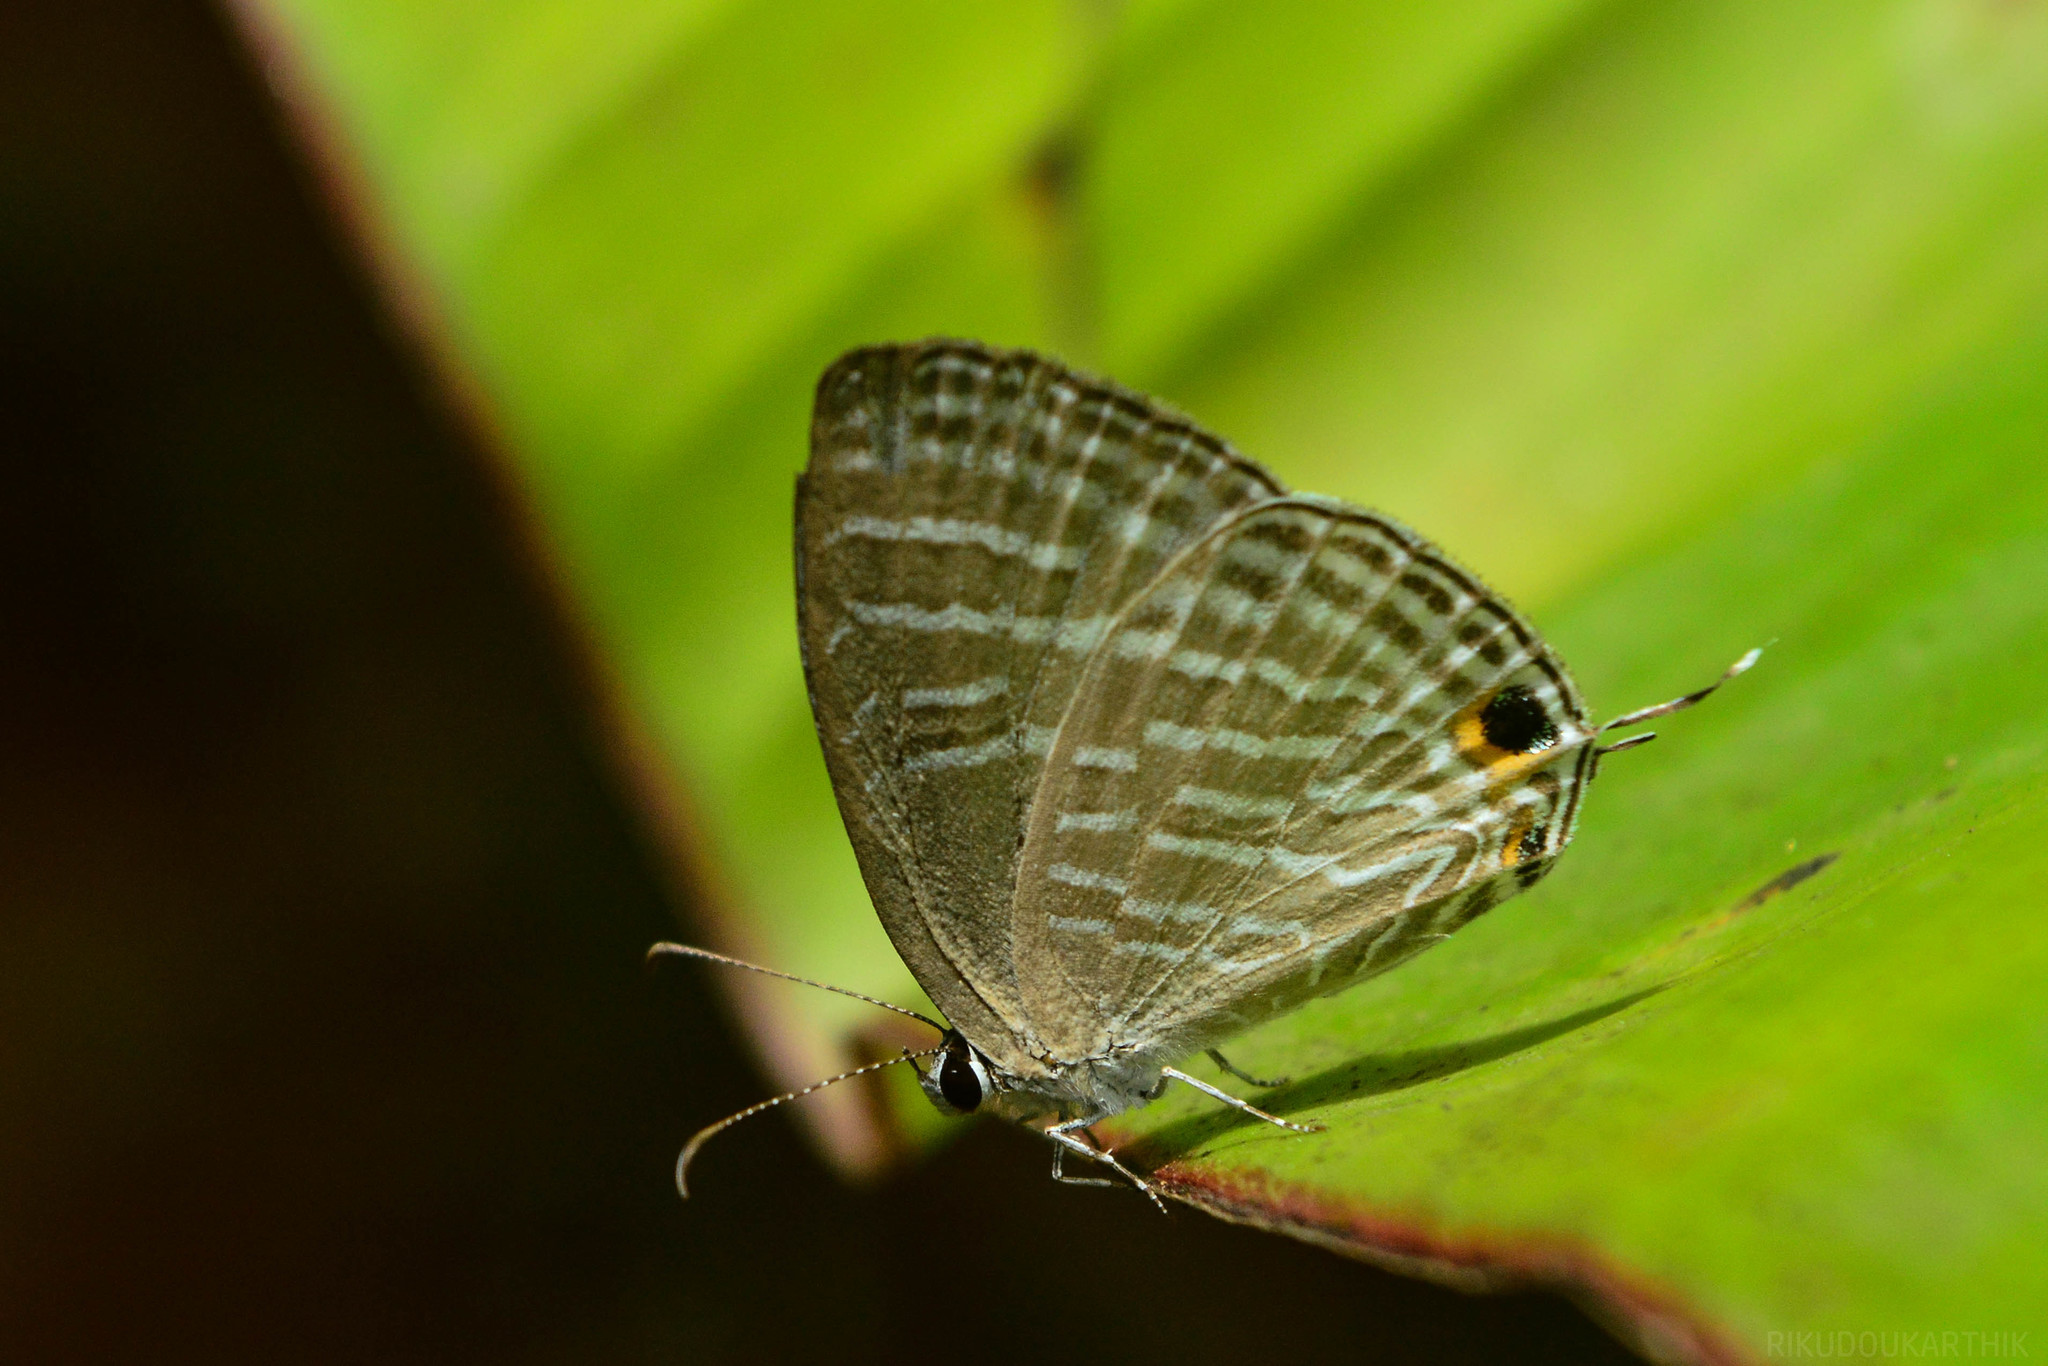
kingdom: Animalia
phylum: Arthropoda
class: Insecta
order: Lepidoptera
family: Lycaenidae
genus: Jamides
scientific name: Jamides celeno
